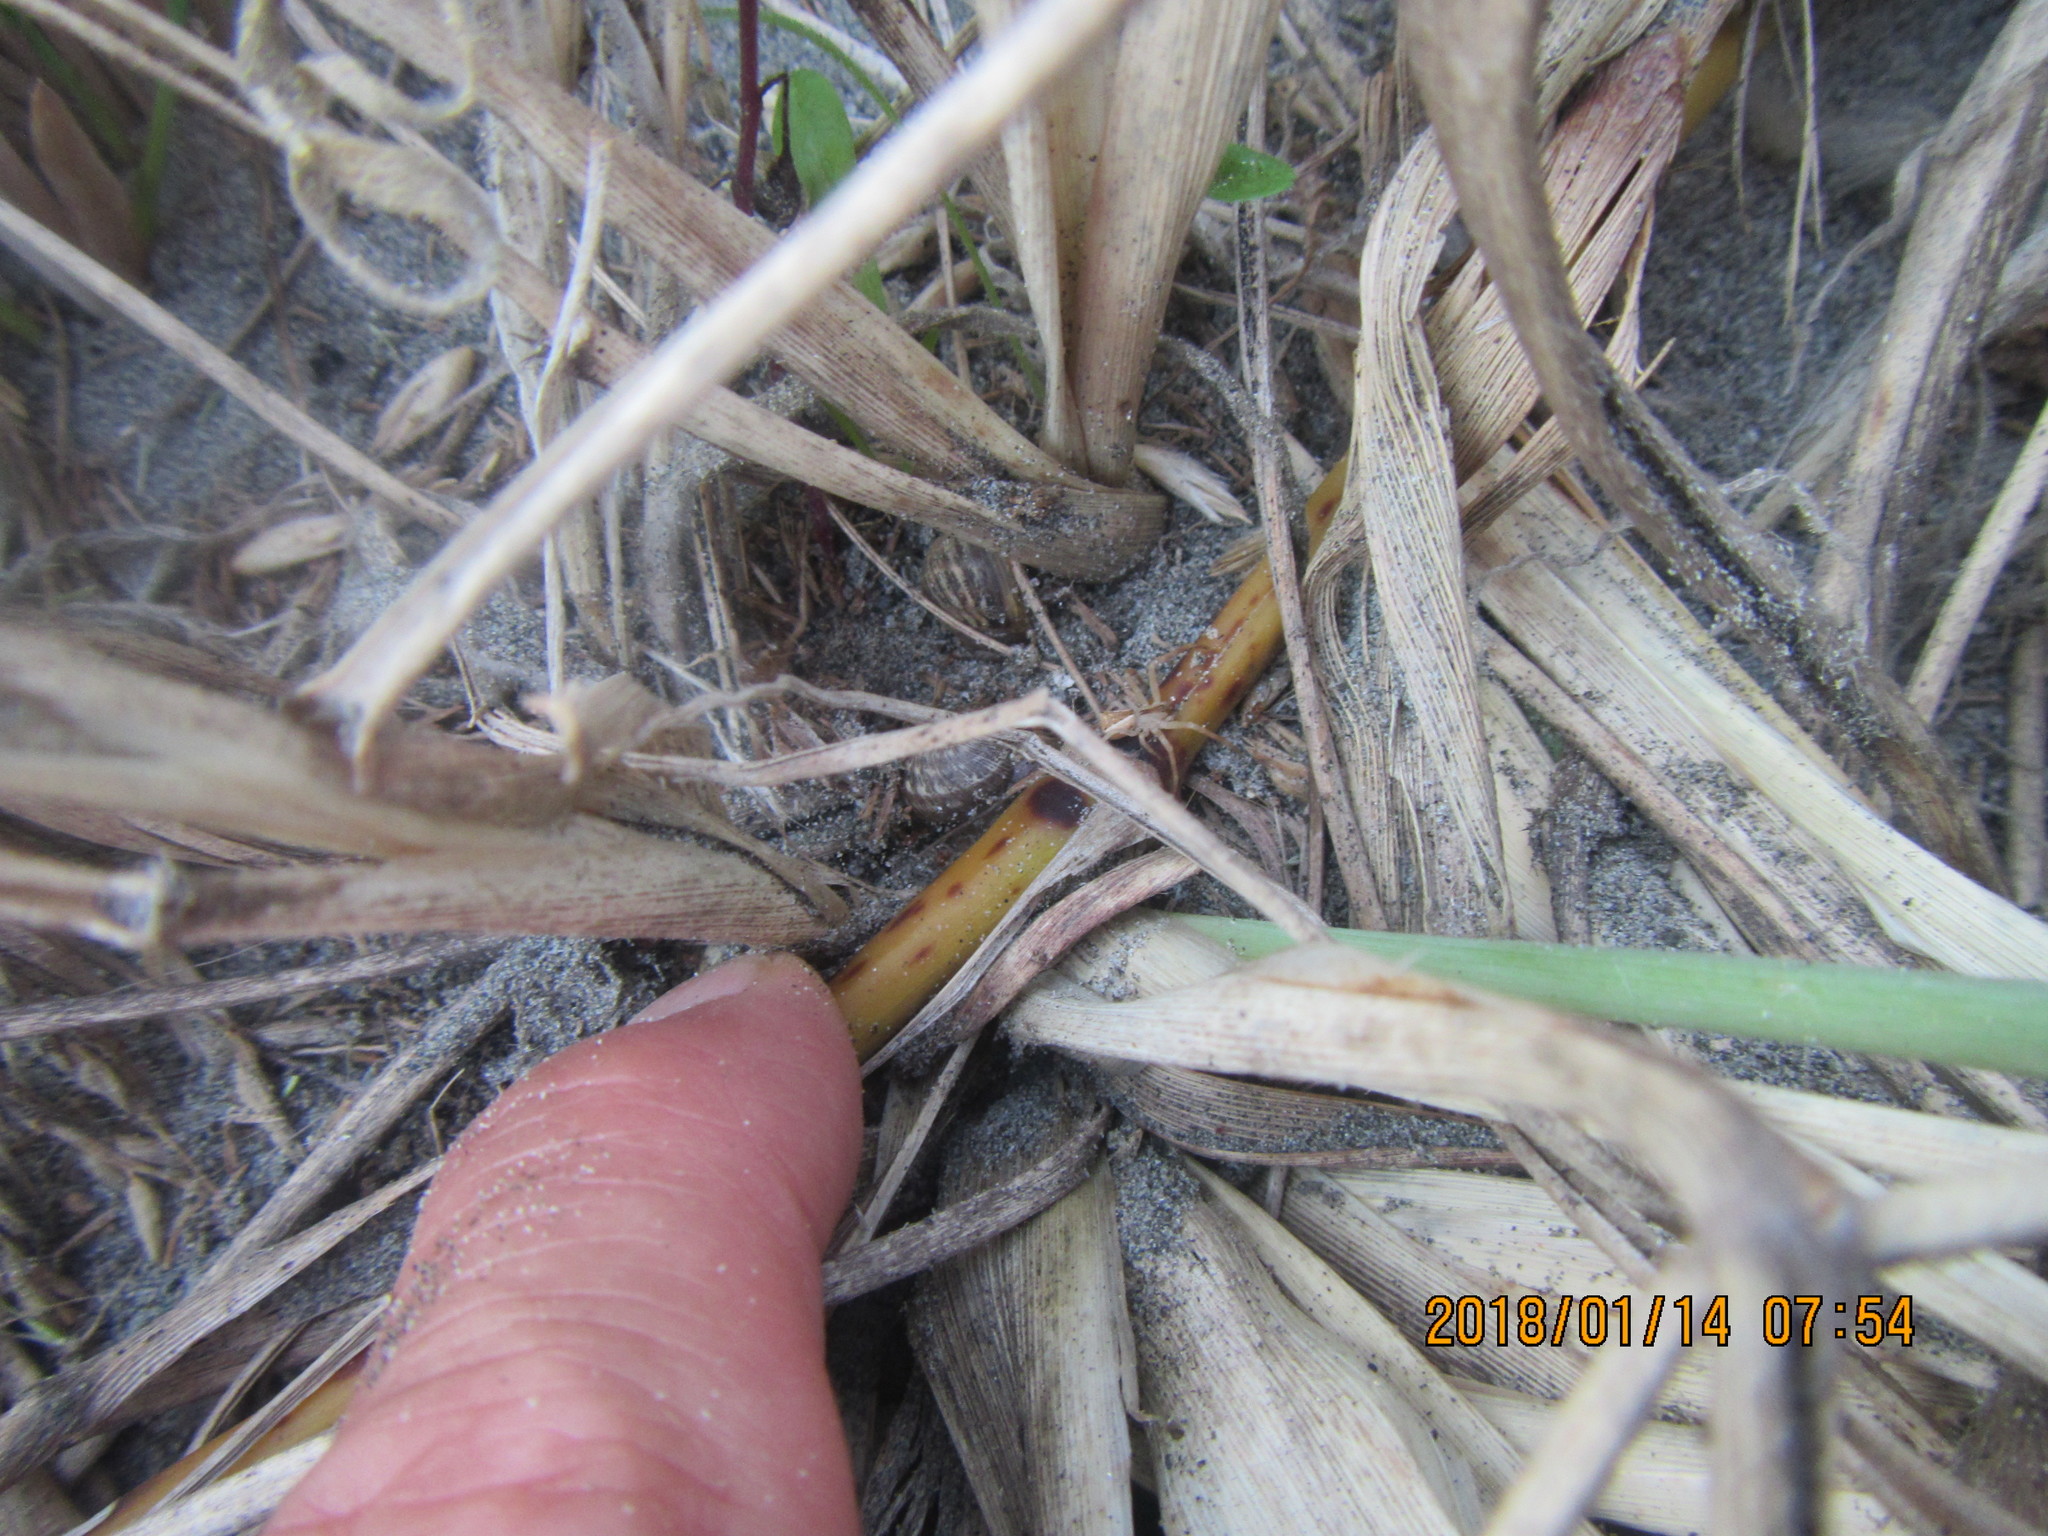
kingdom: Animalia
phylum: Arthropoda
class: Arachnida
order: Araneae
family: Thomisidae
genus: Sidymella
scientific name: Sidymella trapezia
